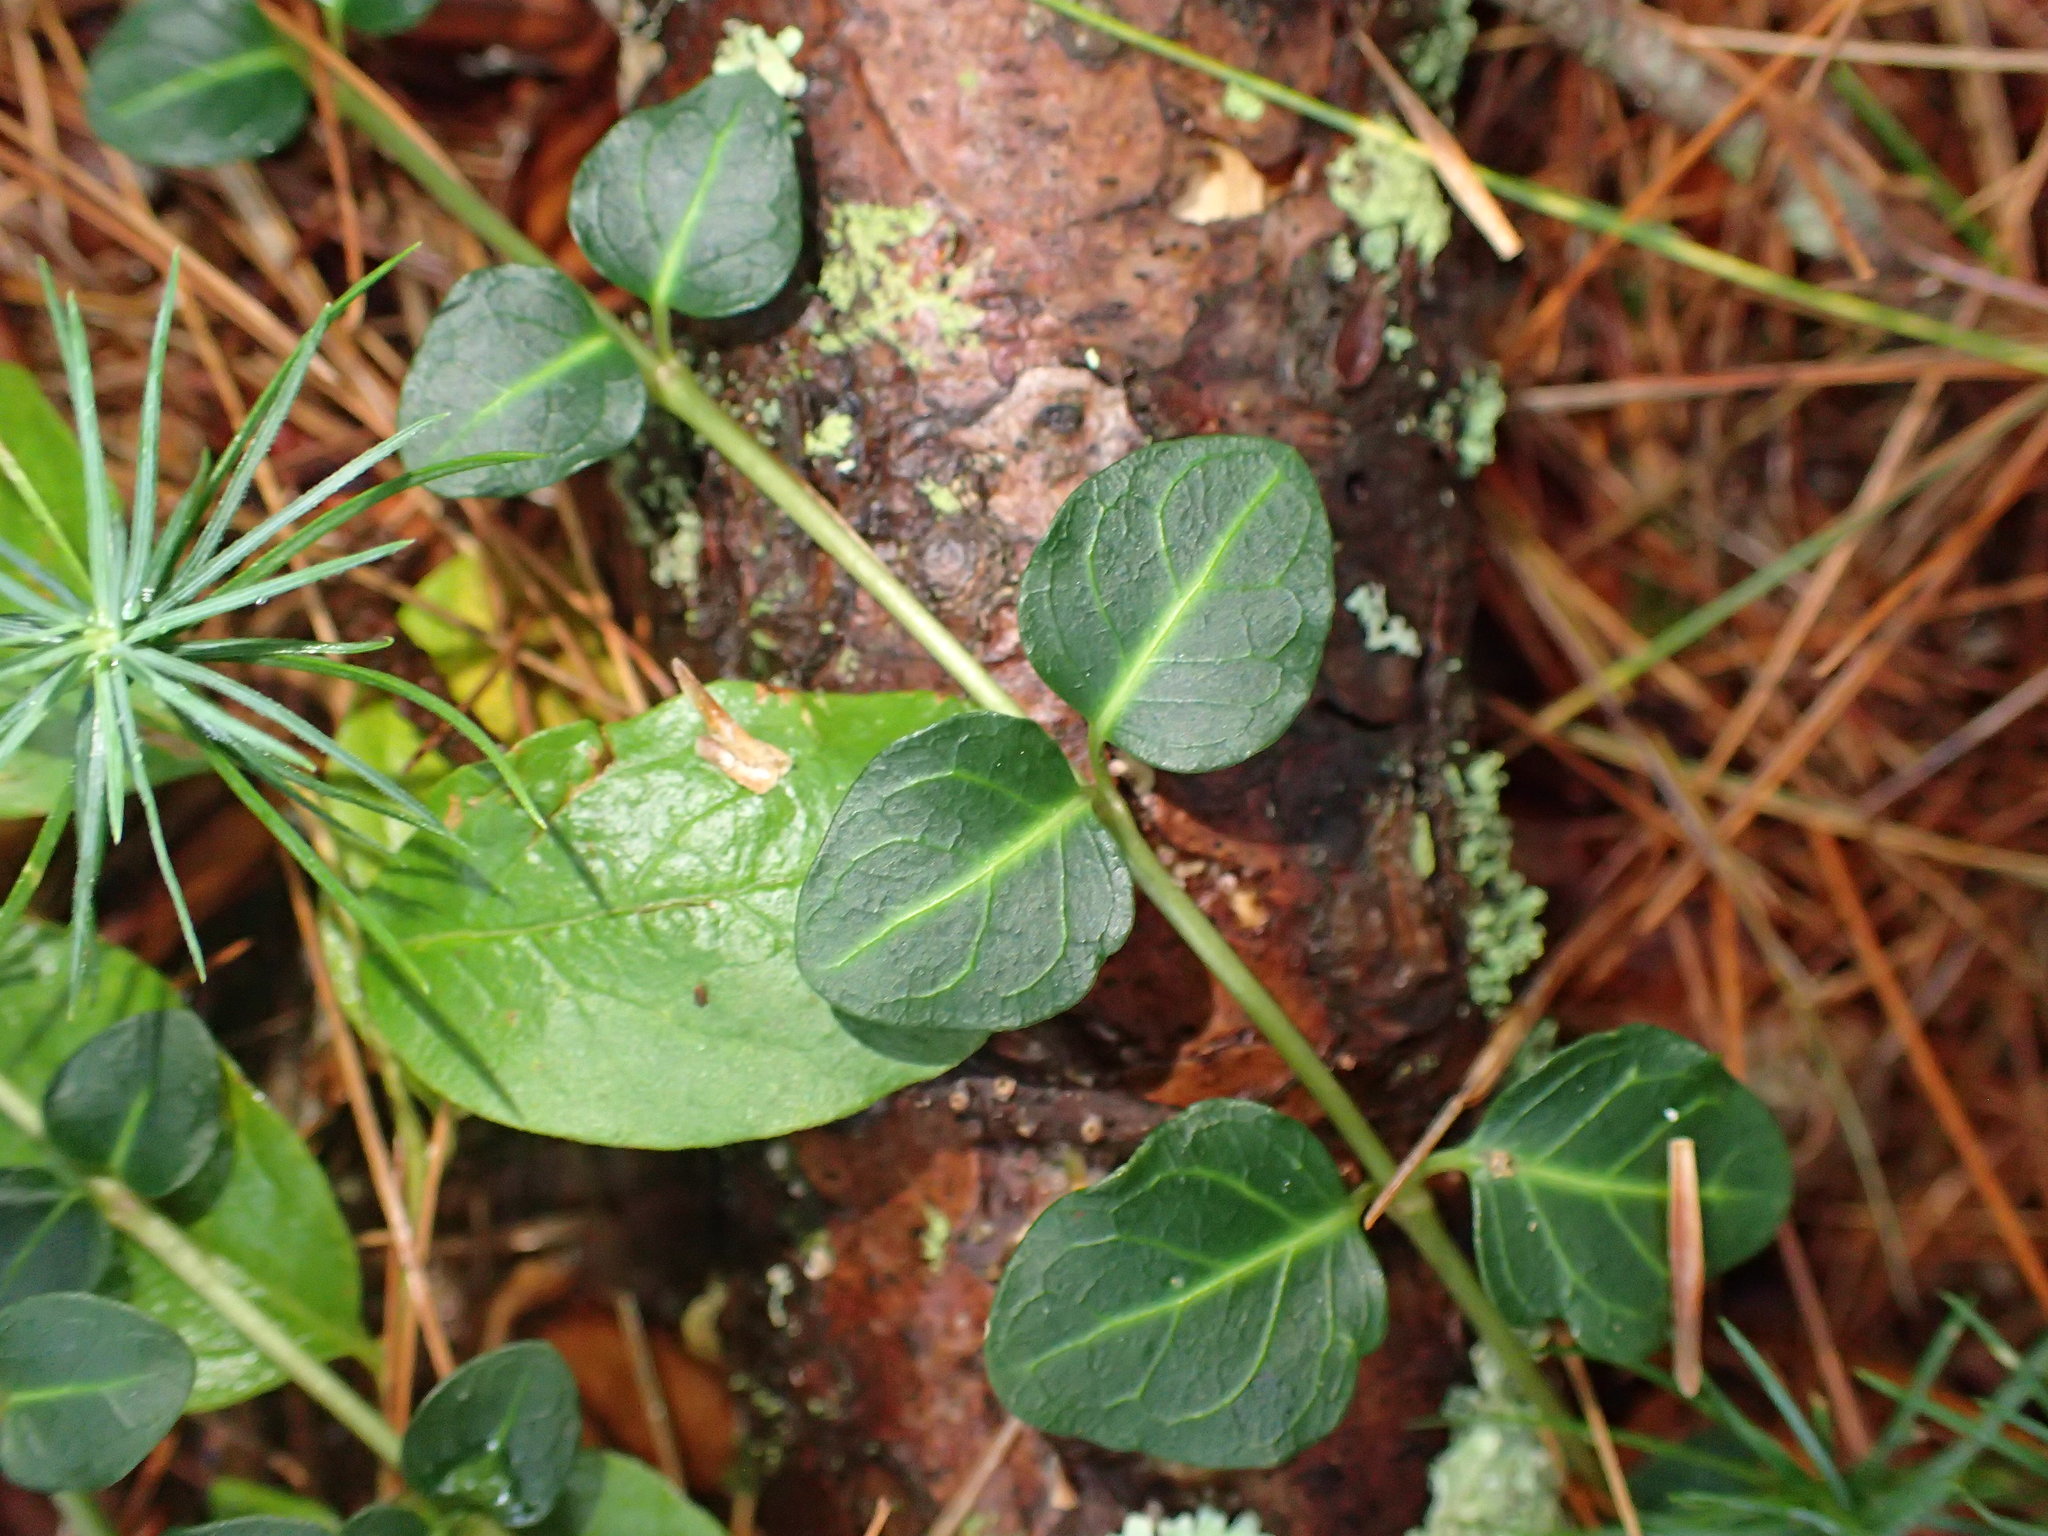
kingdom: Plantae
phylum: Tracheophyta
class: Magnoliopsida
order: Gentianales
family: Rubiaceae
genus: Mitchella
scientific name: Mitchella repens
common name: Partridge-berry
